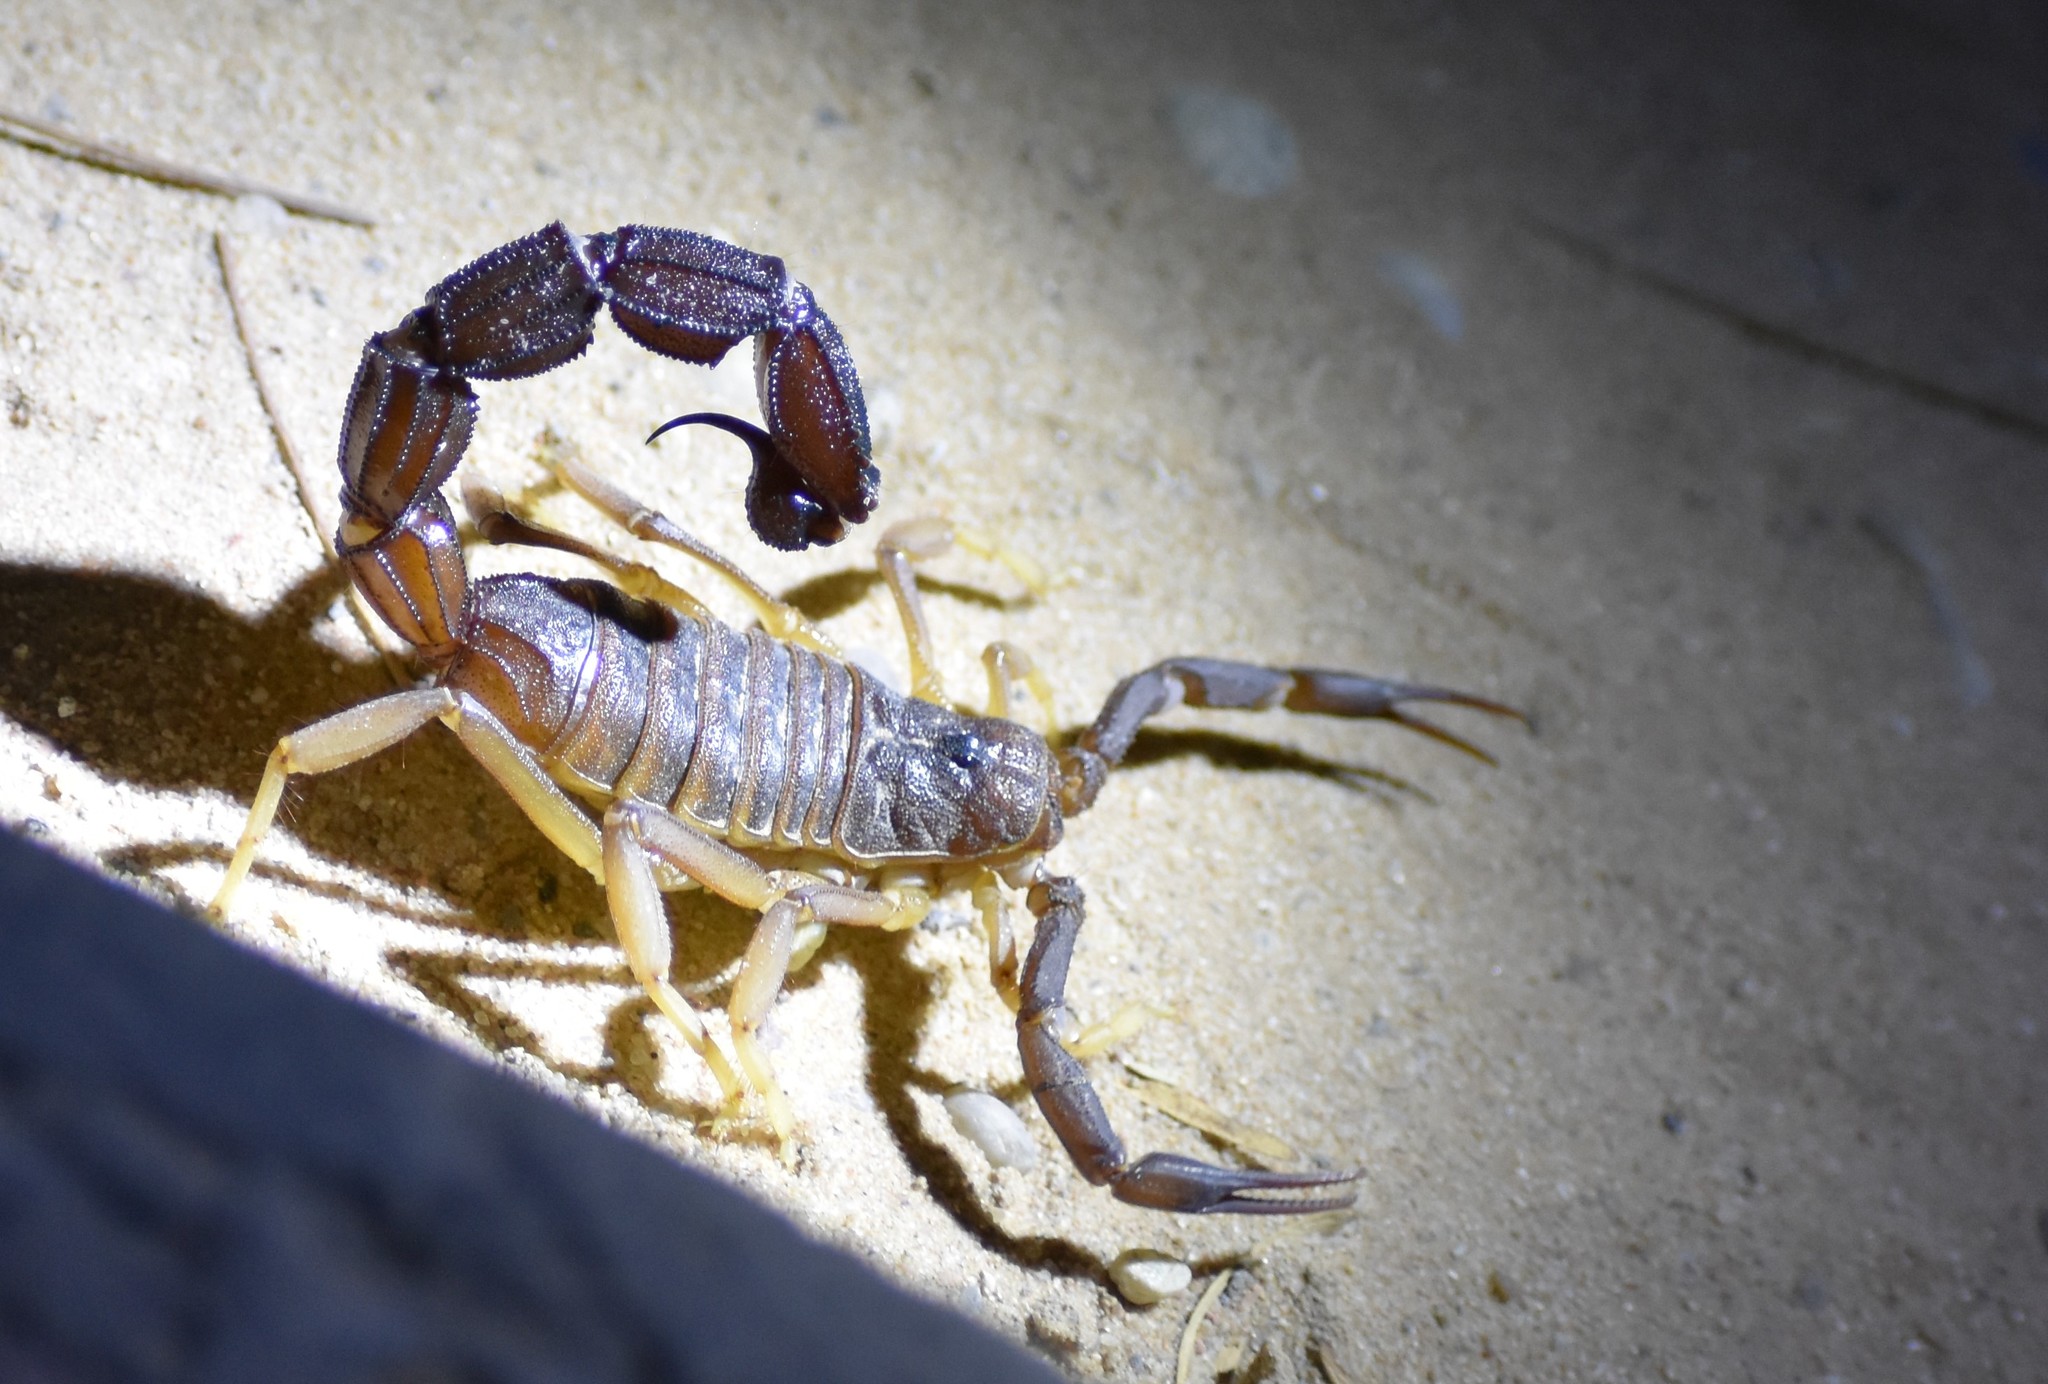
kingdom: Animalia
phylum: Arthropoda
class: Arachnida
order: Scorpiones
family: Buthidae
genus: Parabuthus
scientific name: Parabuthus granulatus
